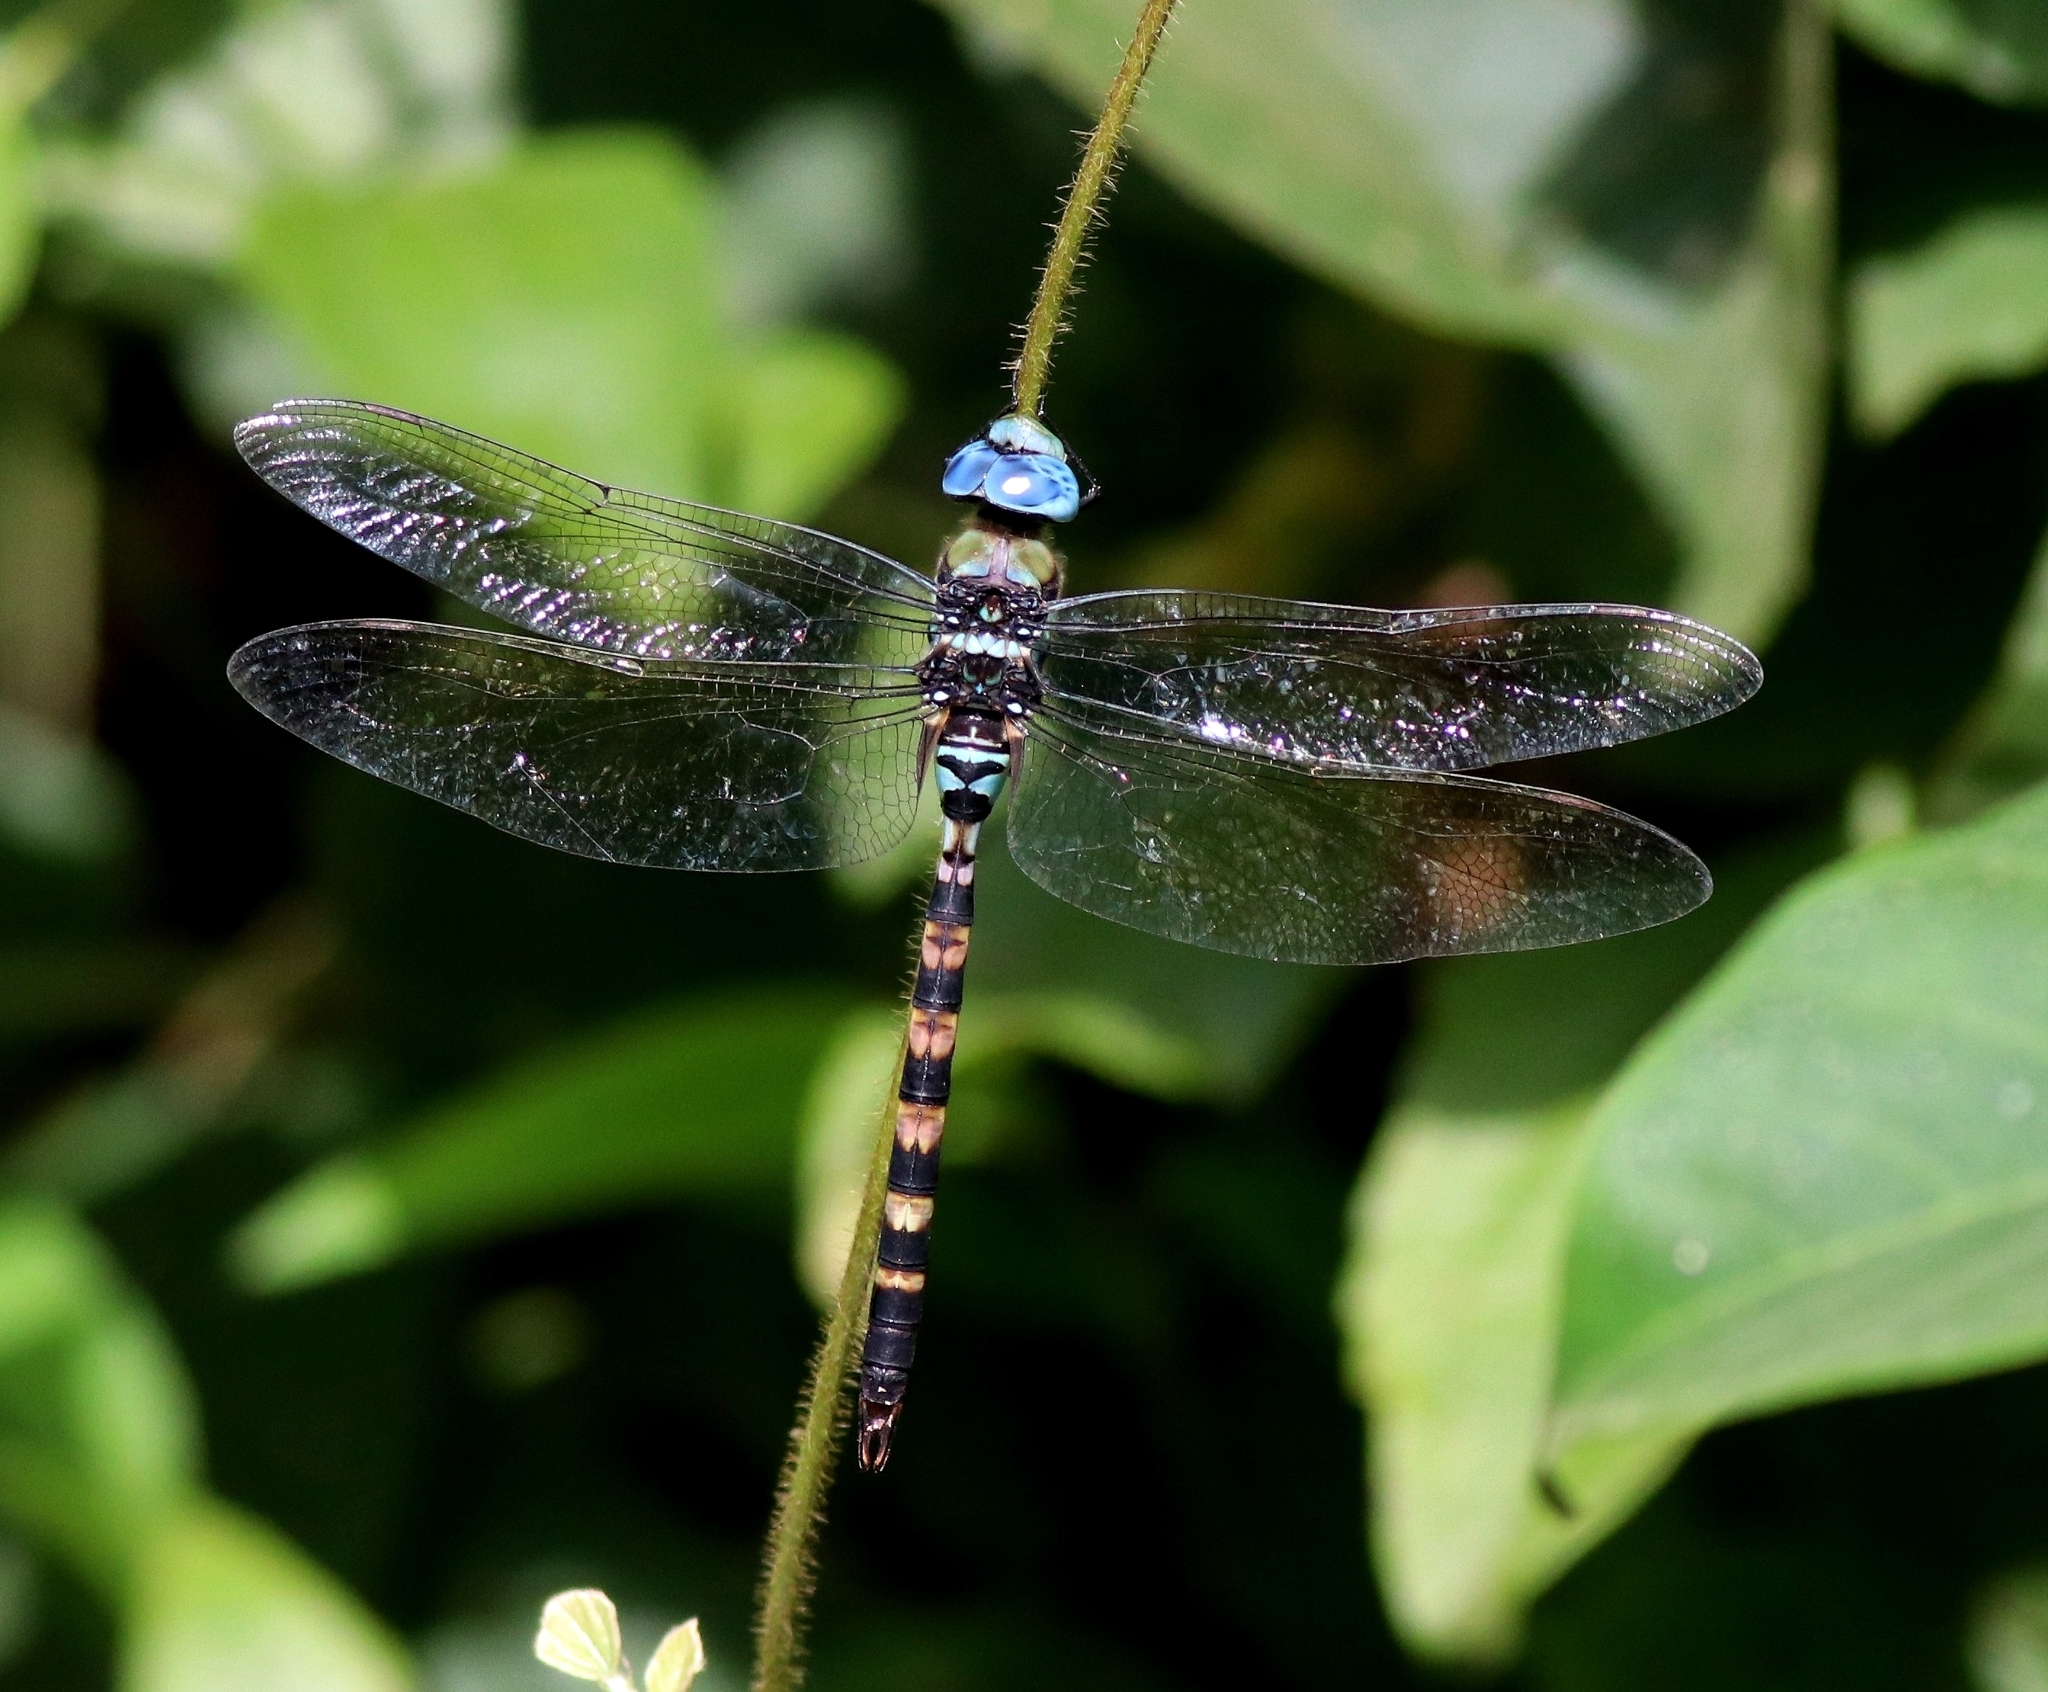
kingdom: Animalia
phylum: Arthropoda
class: Insecta
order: Odonata
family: Aeshnidae
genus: Anax
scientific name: Anax immaculifrons
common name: Magnificent emperor
